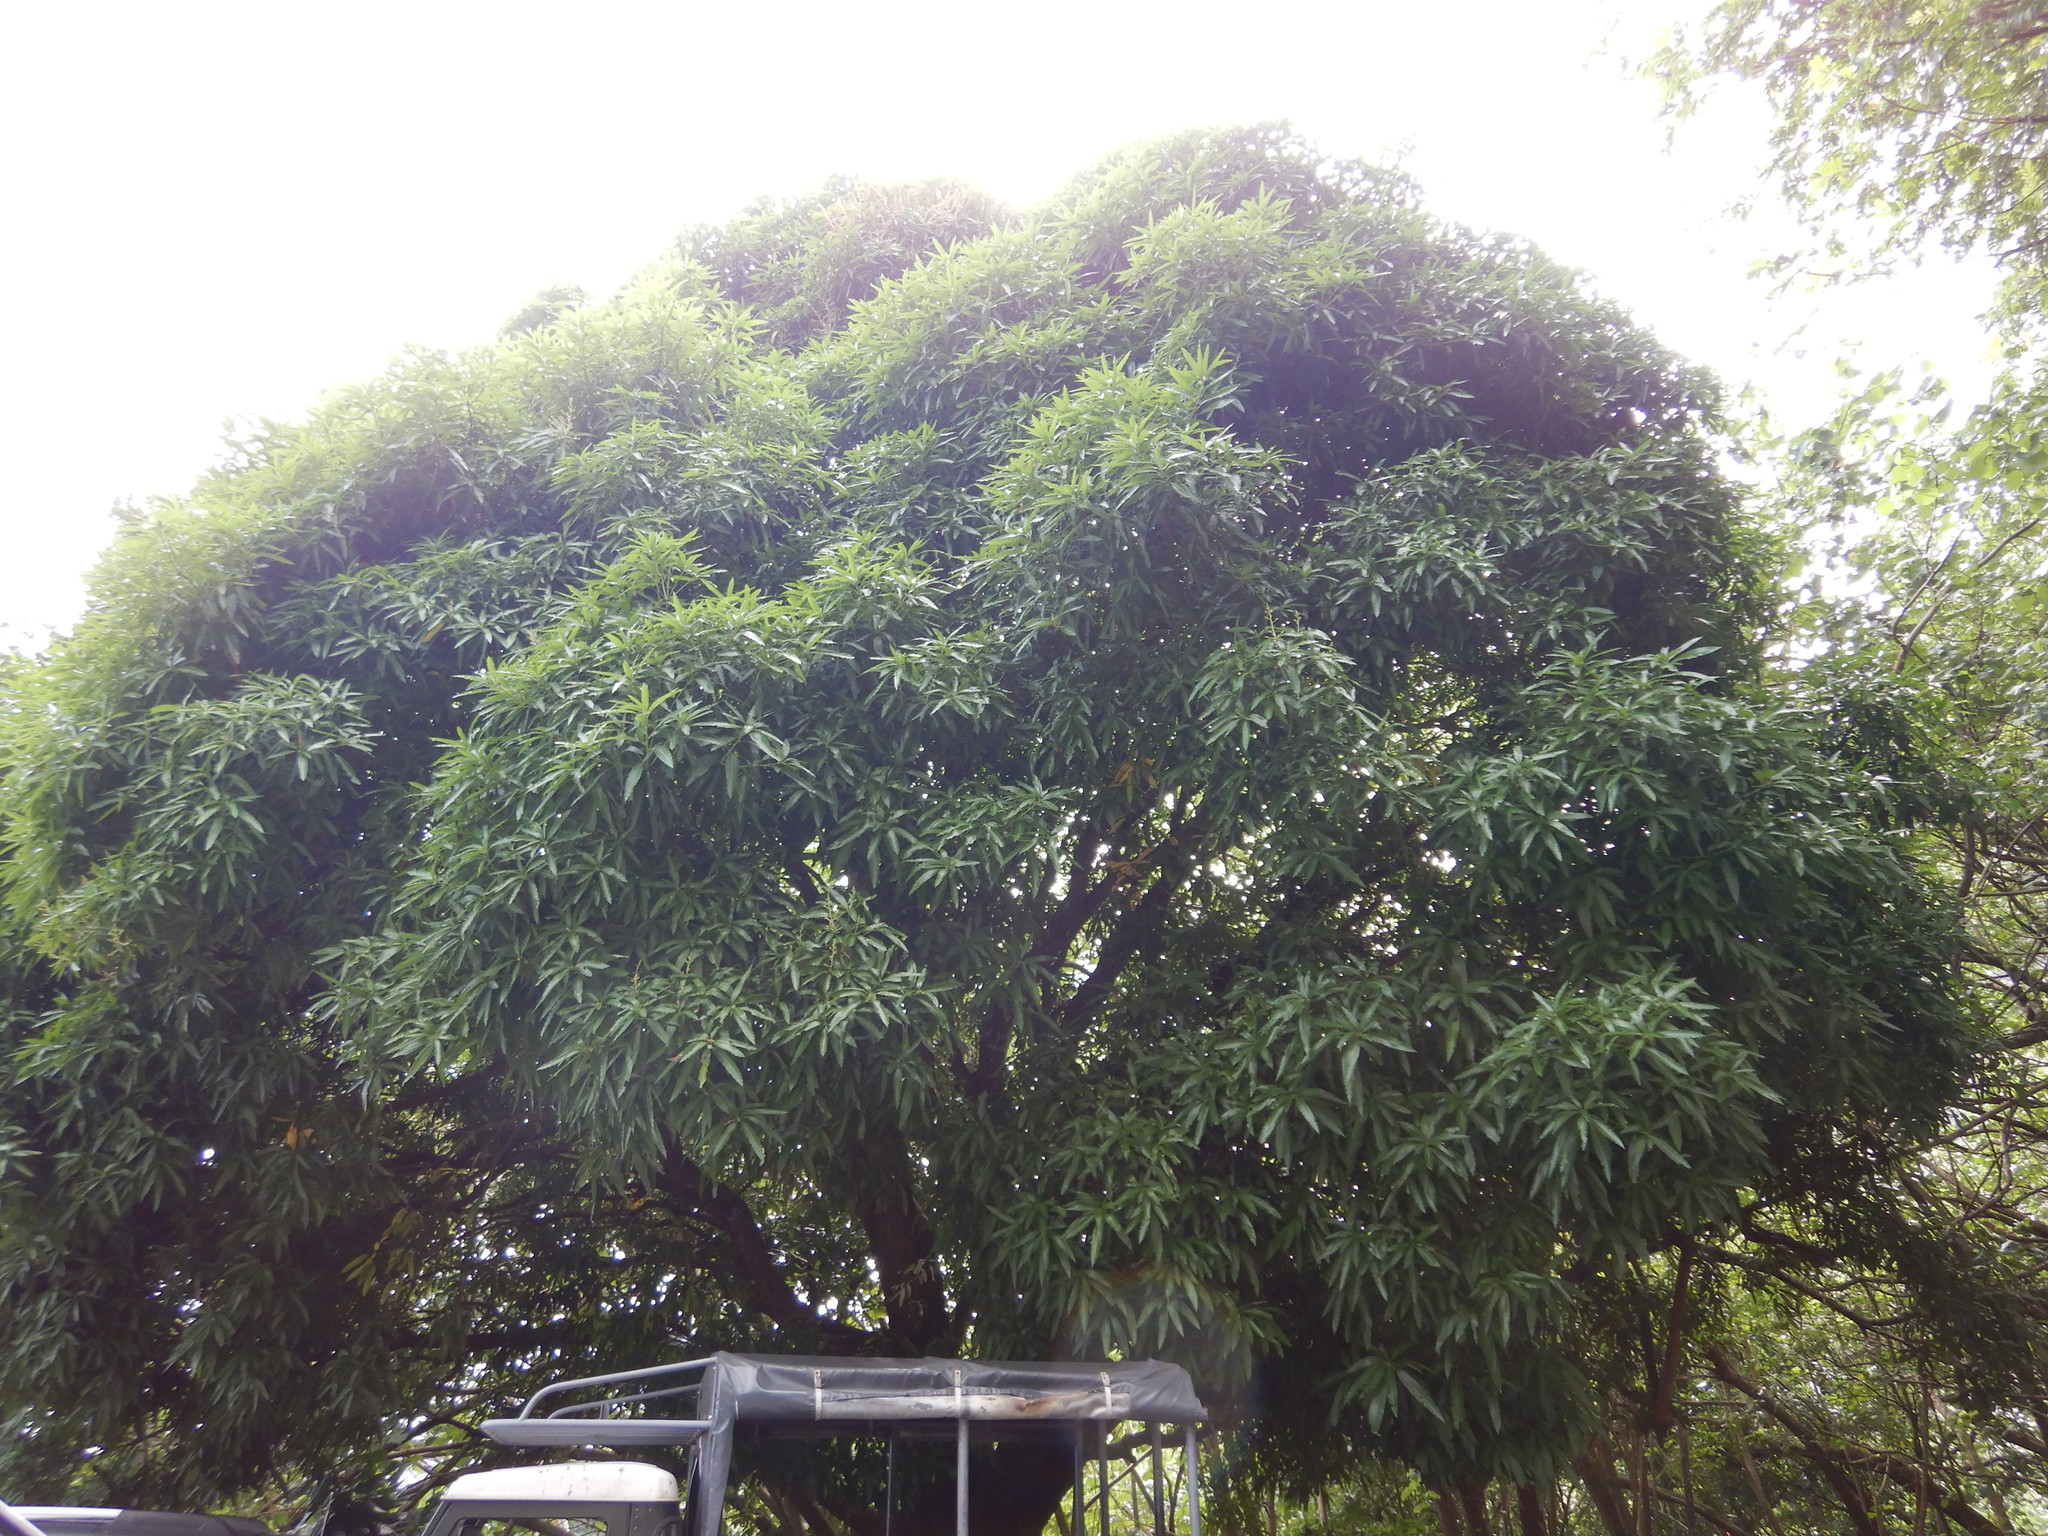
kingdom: Plantae
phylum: Tracheophyta
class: Magnoliopsida
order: Sapindales
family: Anacardiaceae
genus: Mangifera
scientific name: Mangifera indica
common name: Mango
